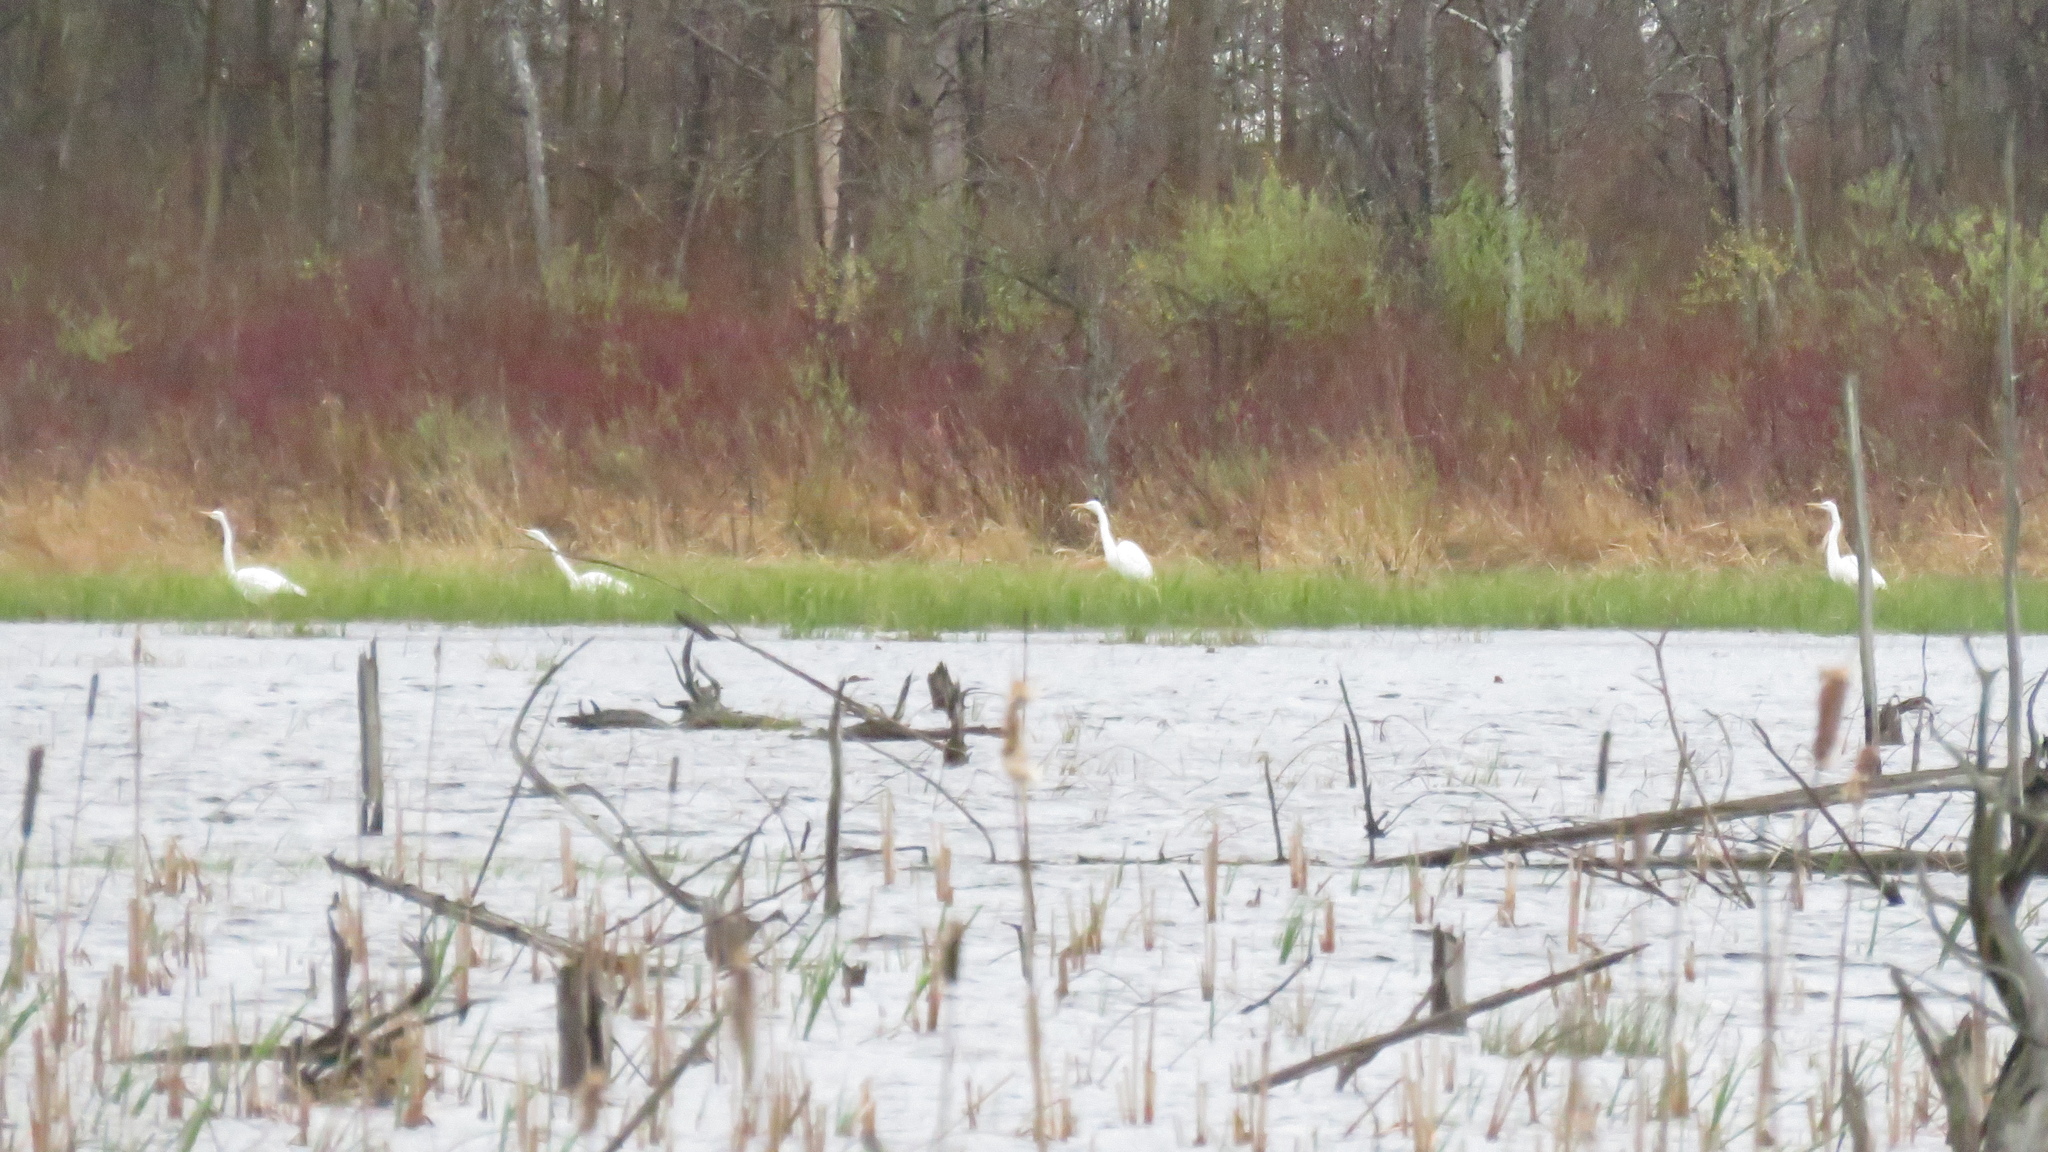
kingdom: Animalia
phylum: Chordata
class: Aves
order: Pelecaniformes
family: Ardeidae
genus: Ardea
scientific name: Ardea alba
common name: Great egret
